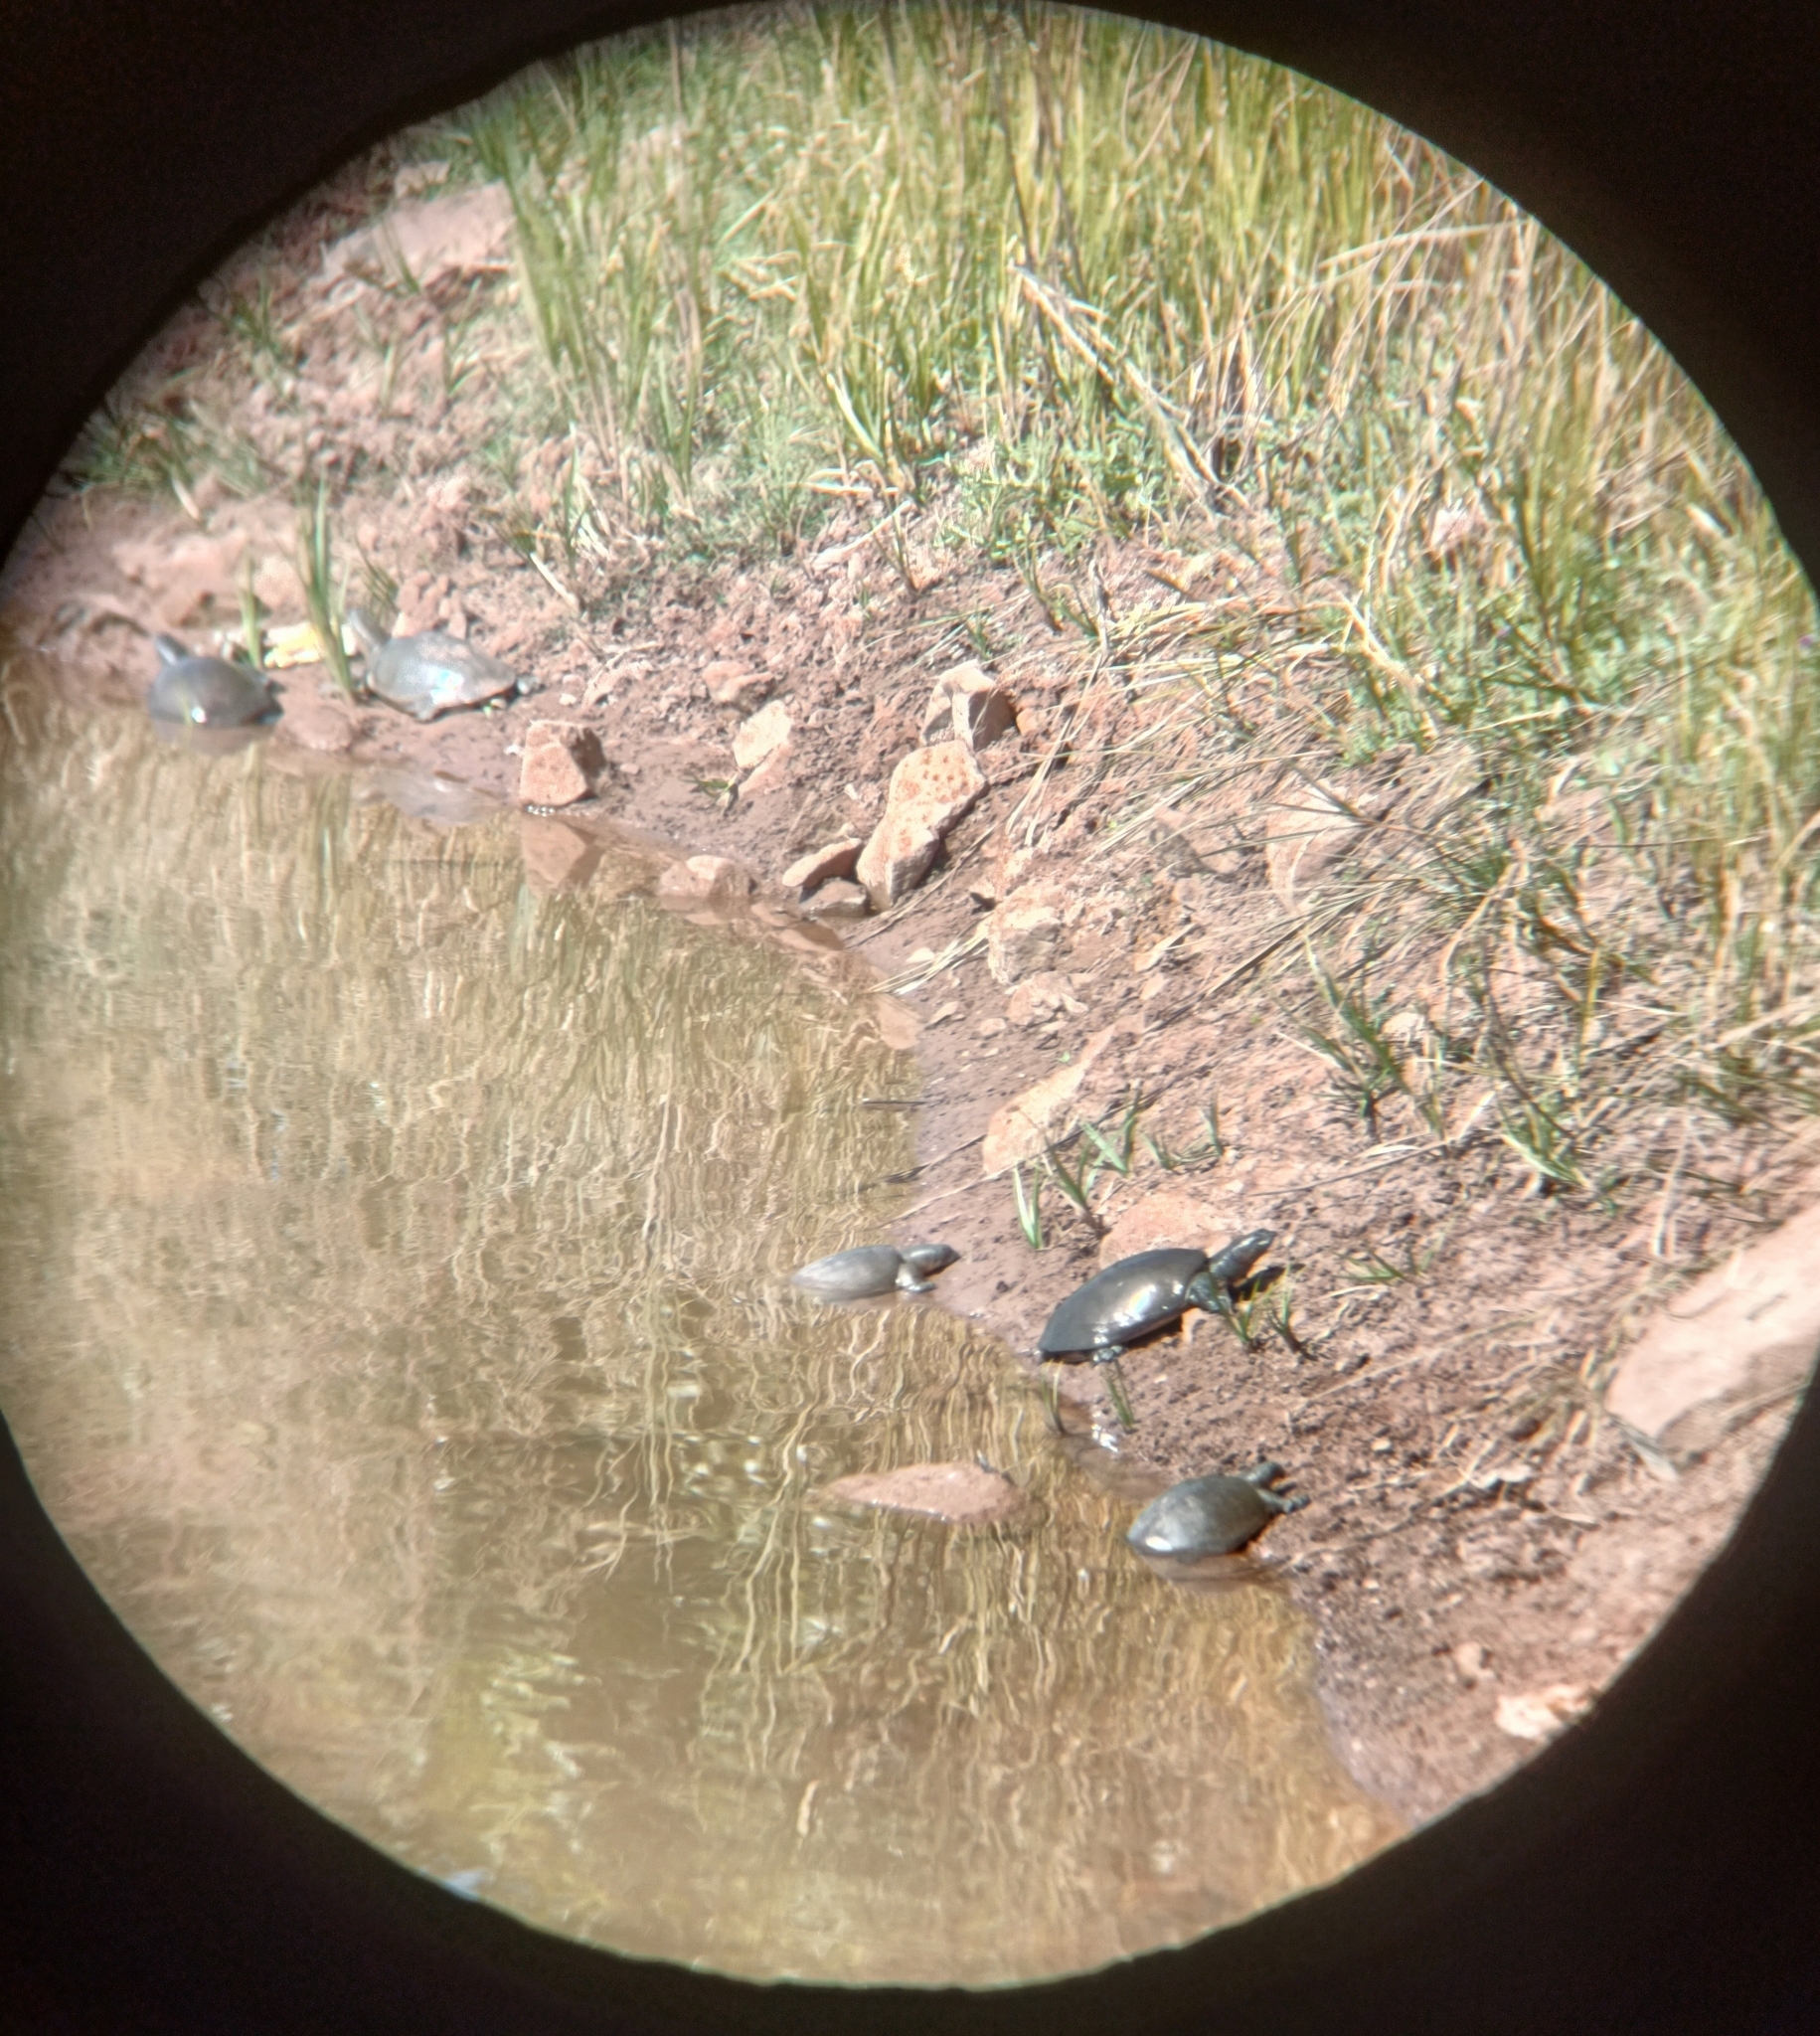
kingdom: Animalia
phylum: Chordata
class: Testudines
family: Trionychidae
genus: Lissemys
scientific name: Lissemys punctata
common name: Indian flap-shelled turtle
